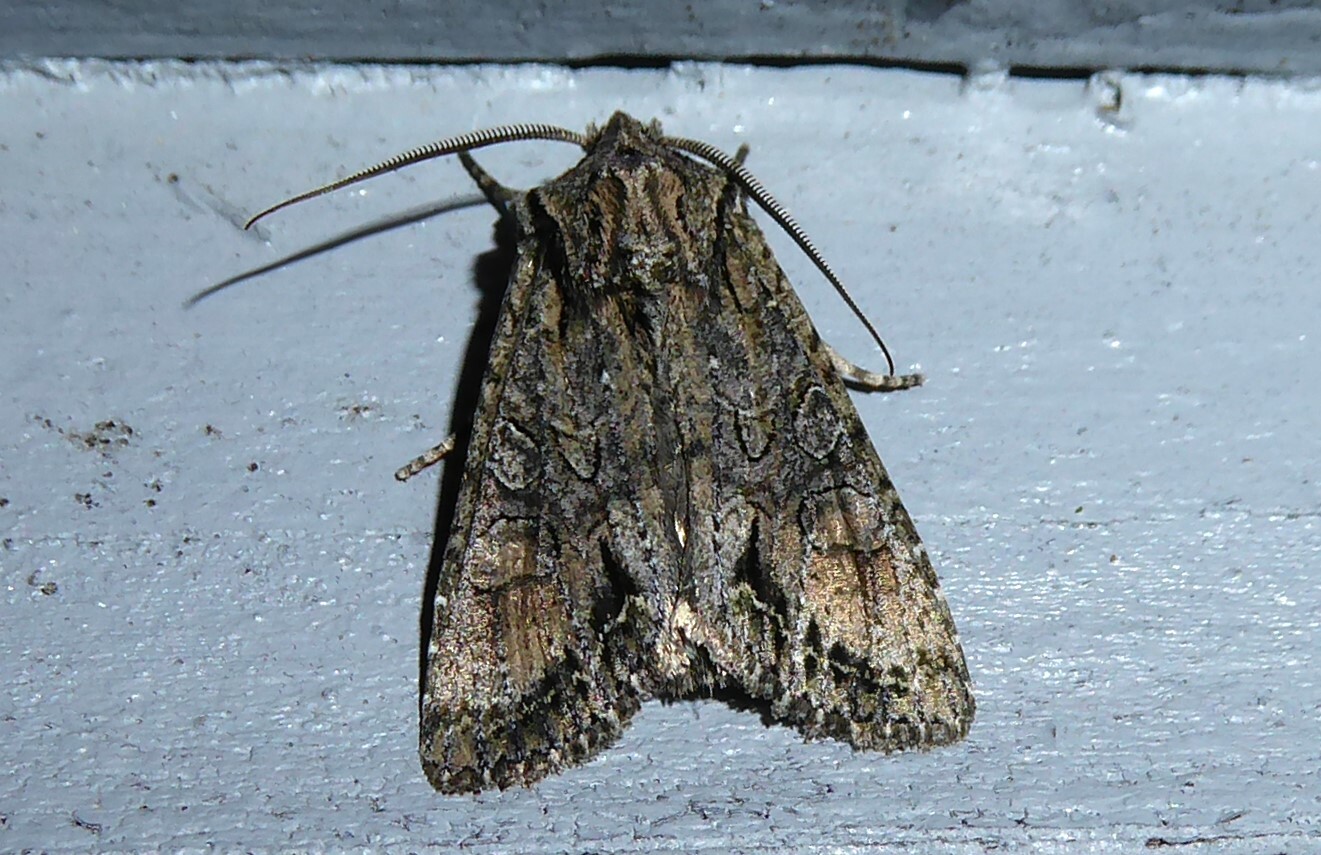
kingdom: Animalia
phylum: Arthropoda
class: Insecta
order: Lepidoptera
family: Noctuidae
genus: Ichneutica
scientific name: Ichneutica mutans
